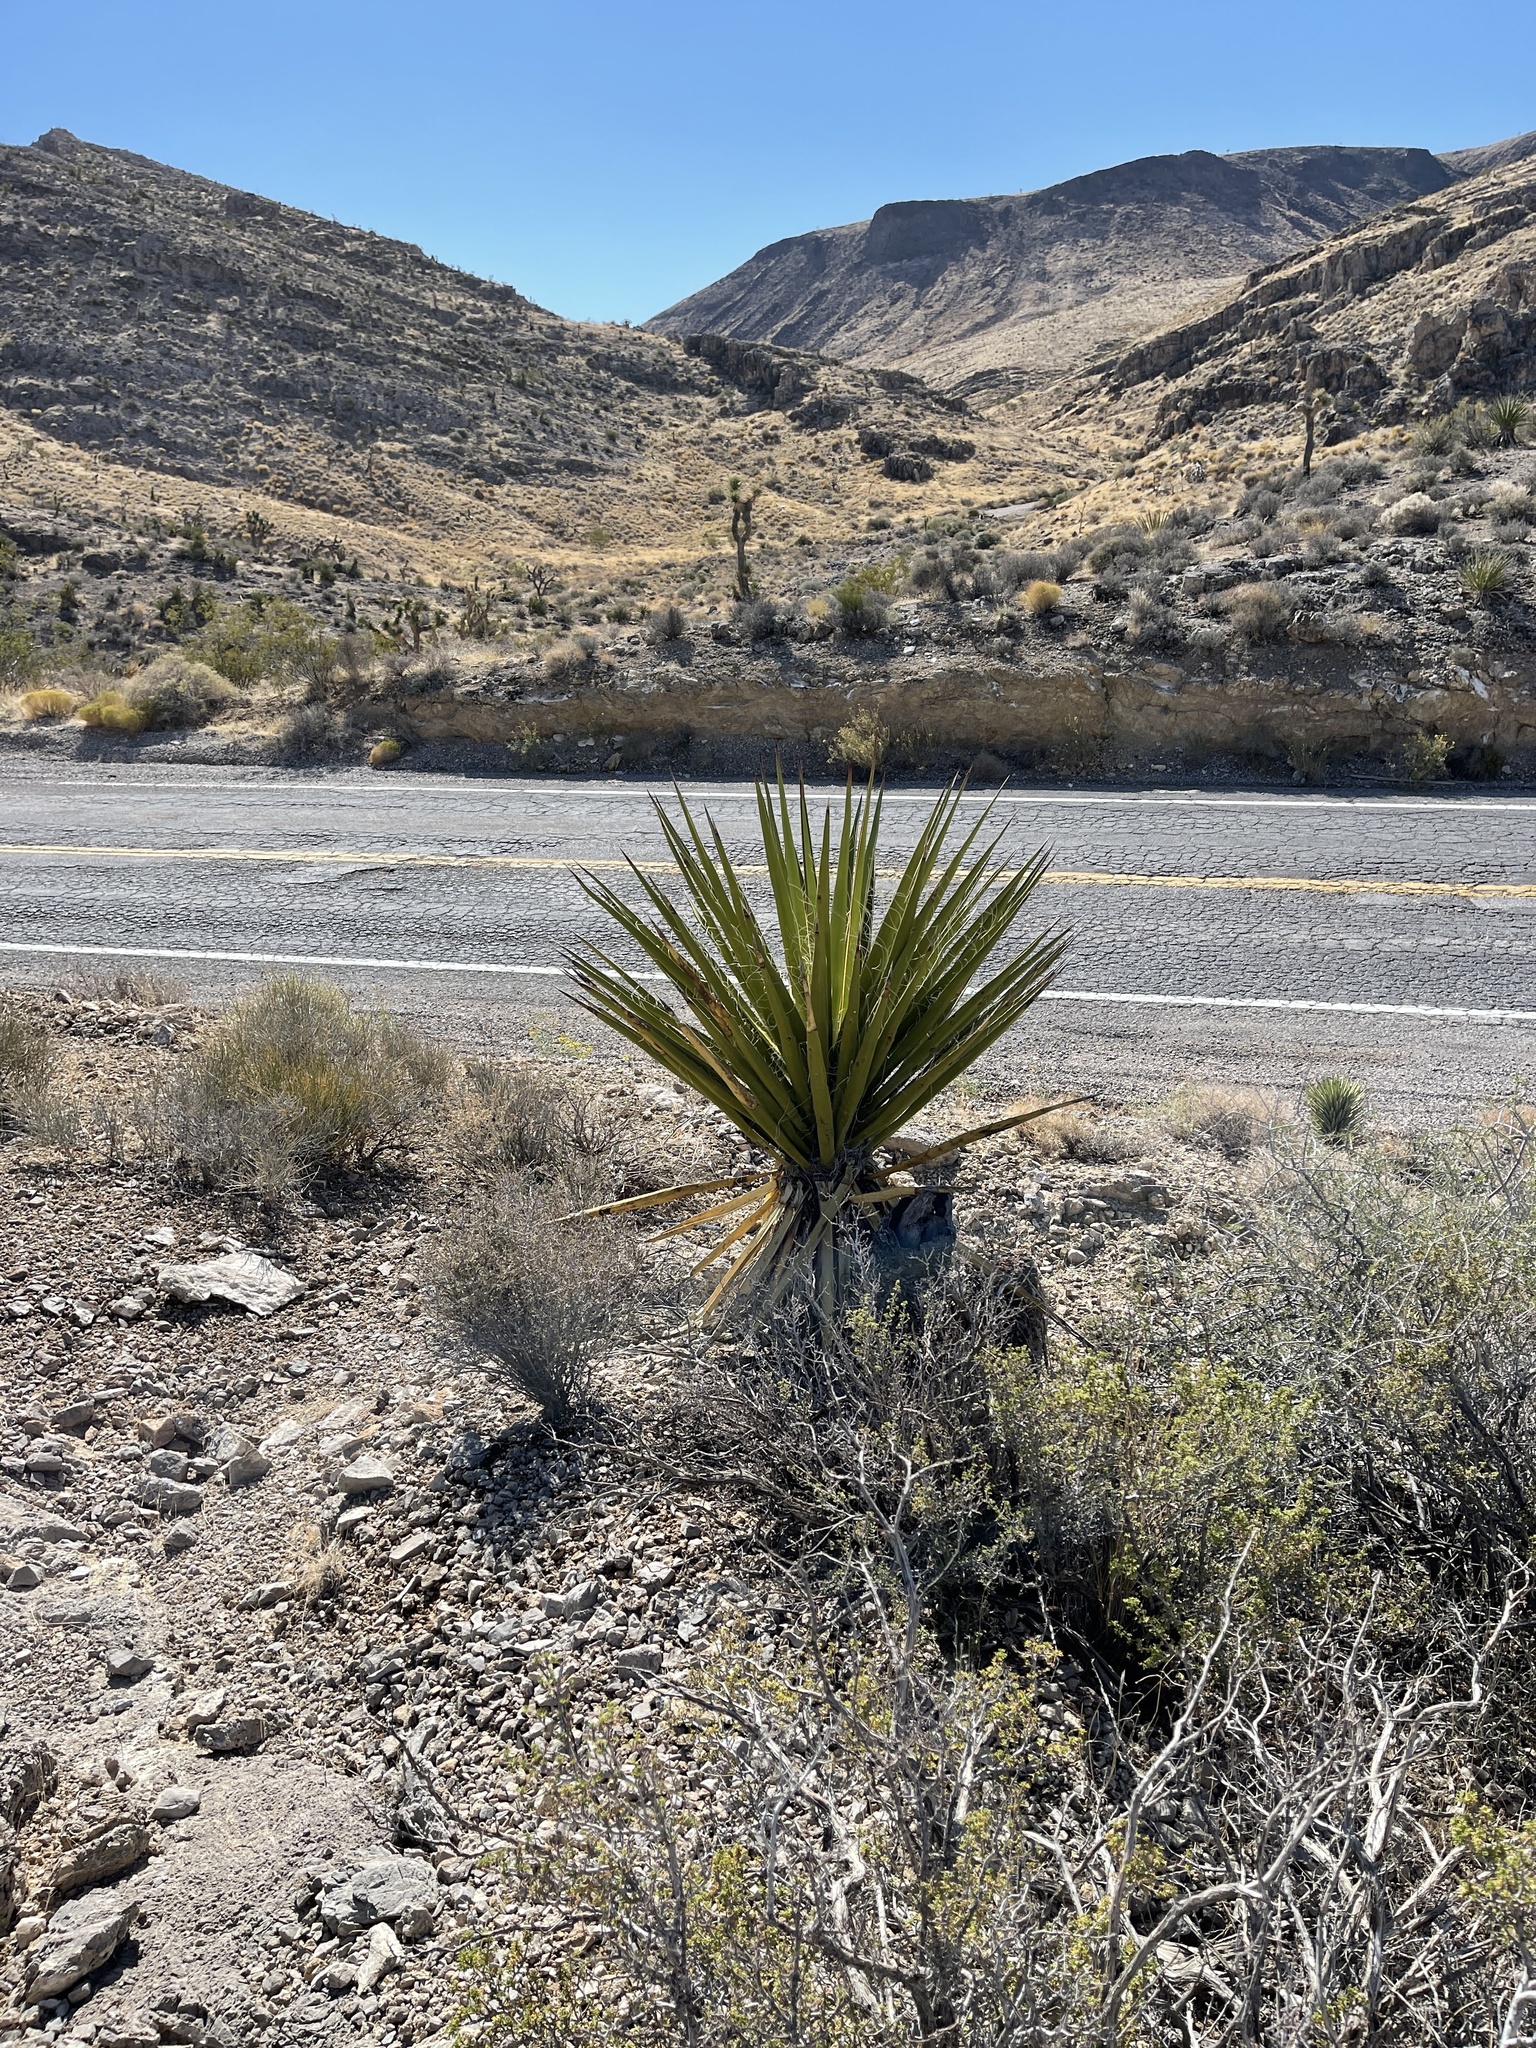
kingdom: Plantae
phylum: Tracheophyta
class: Liliopsida
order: Asparagales
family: Asparagaceae
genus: Yucca
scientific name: Yucca schidigera
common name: Mojave yucca
